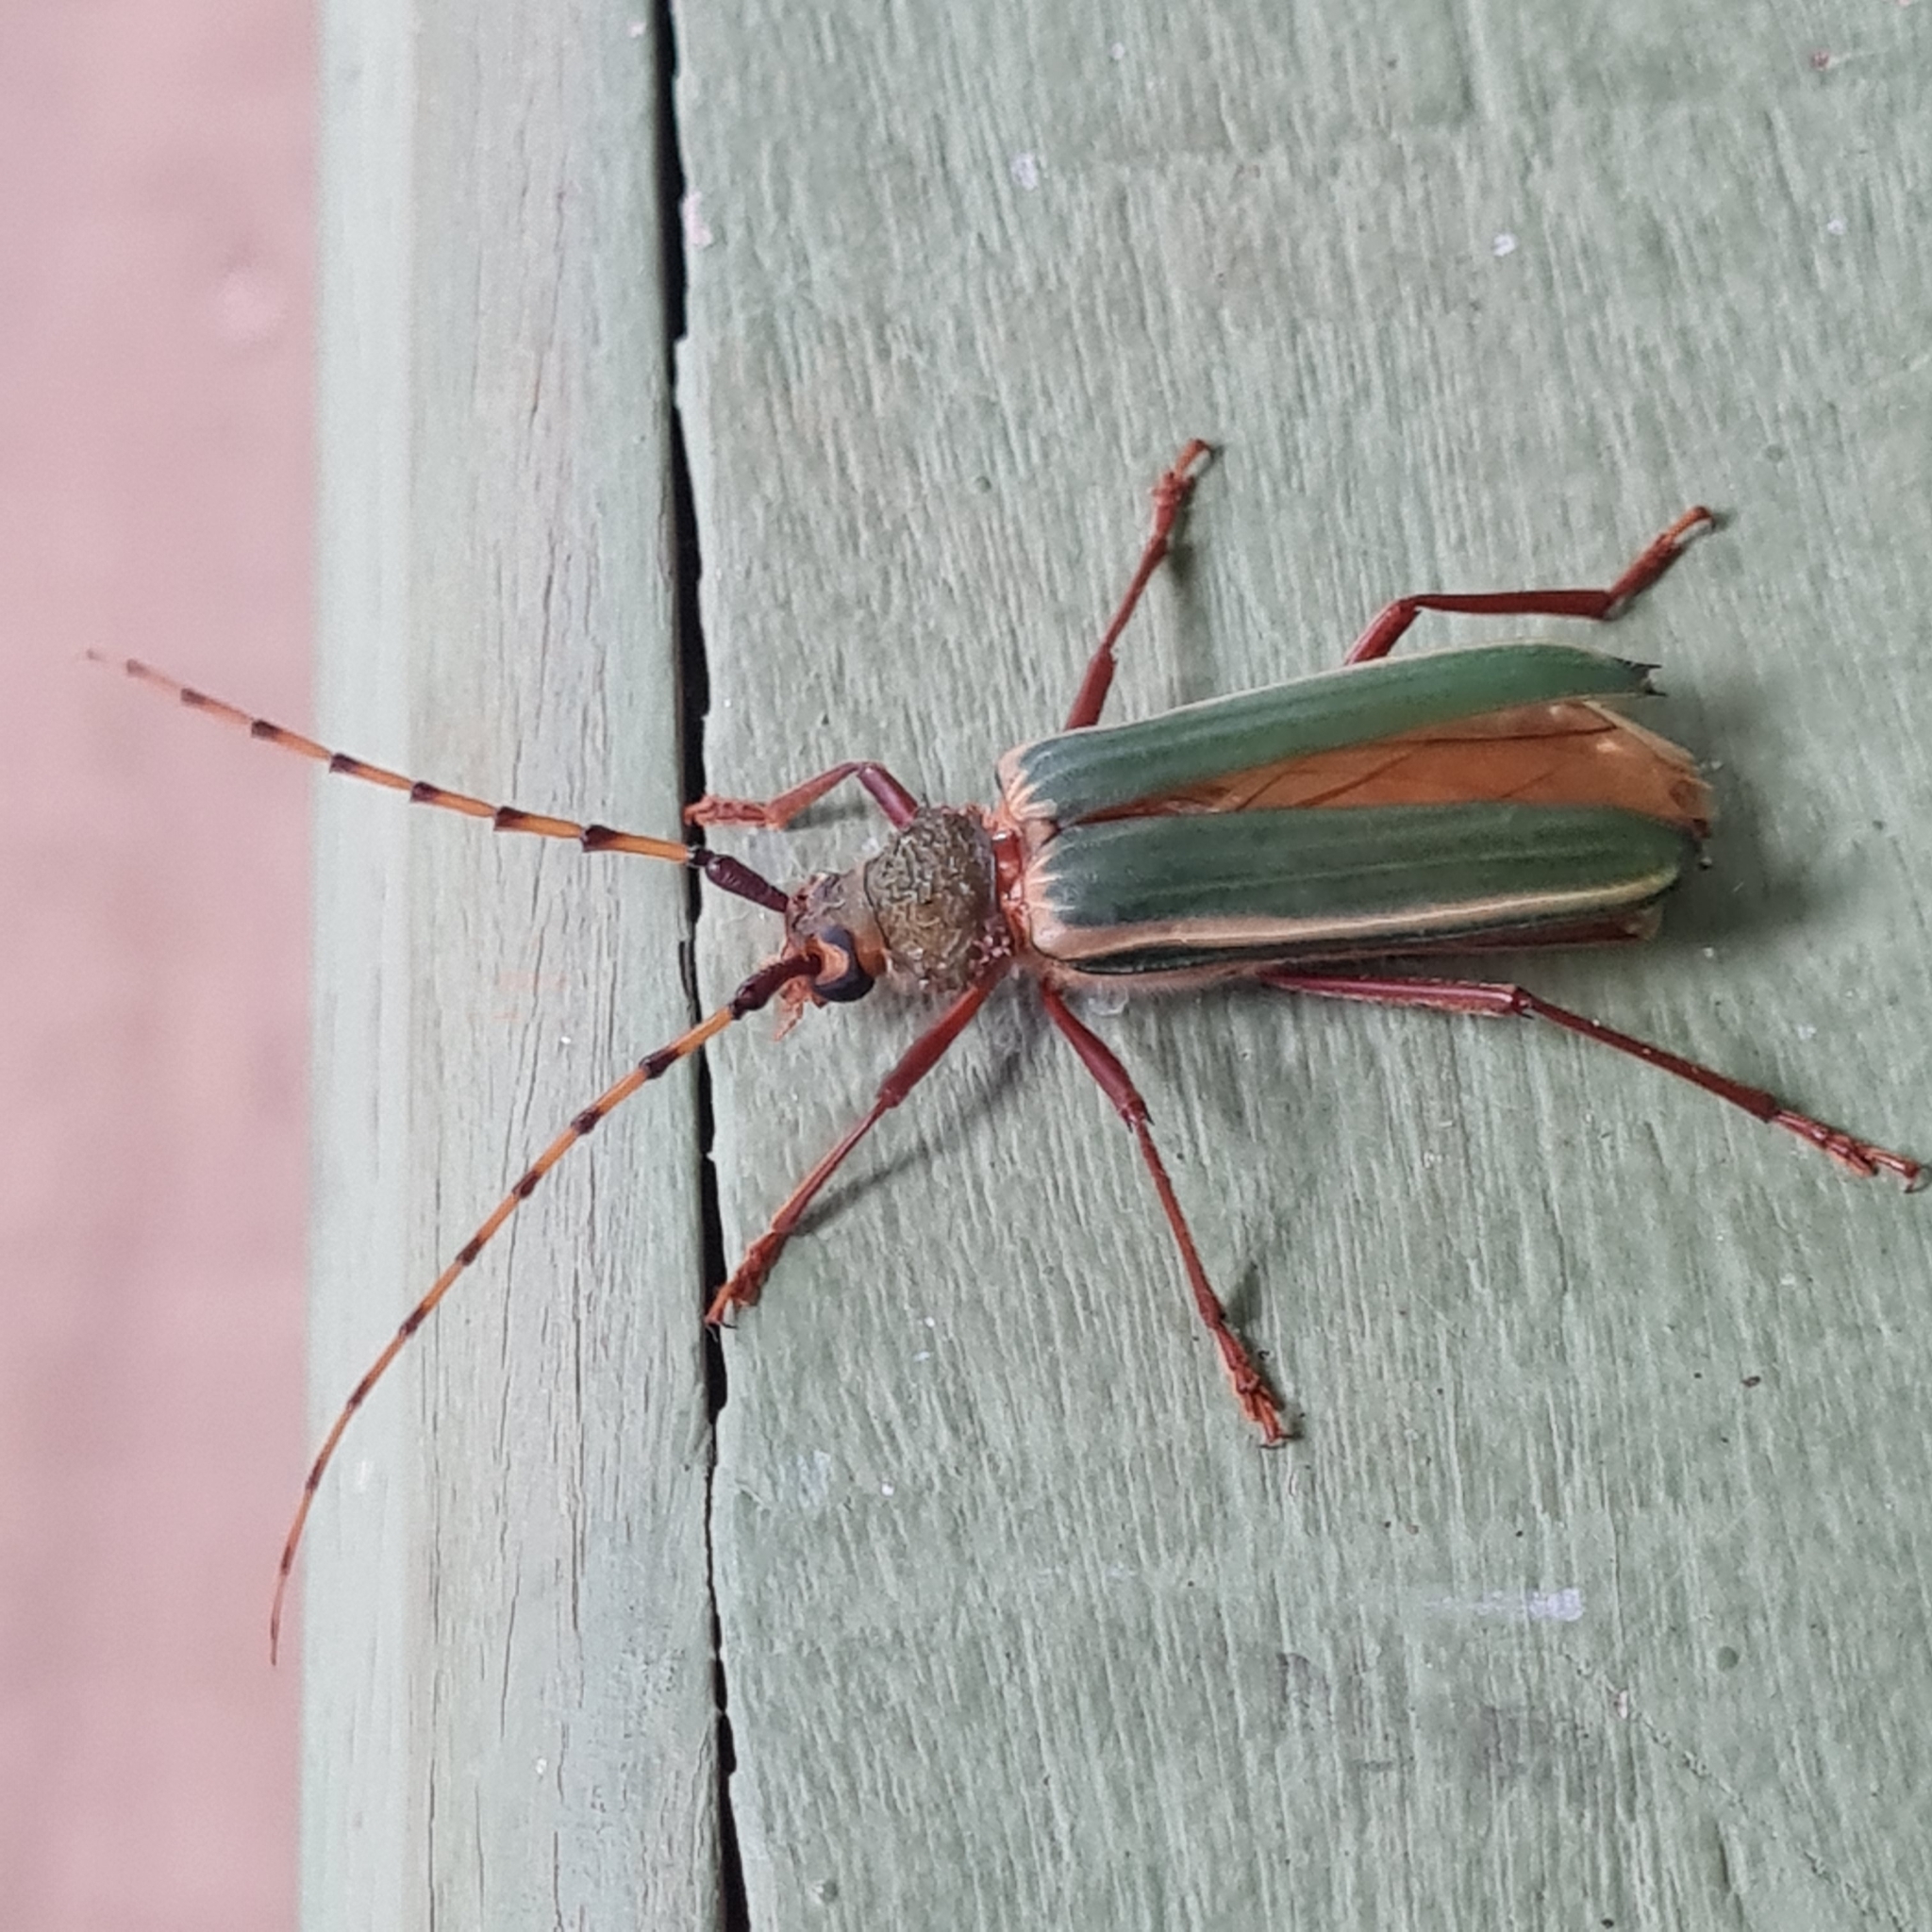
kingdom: Animalia
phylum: Arthropoda
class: Insecta
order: Coleoptera
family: Cerambycidae
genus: Chlorida
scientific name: Chlorida costata
